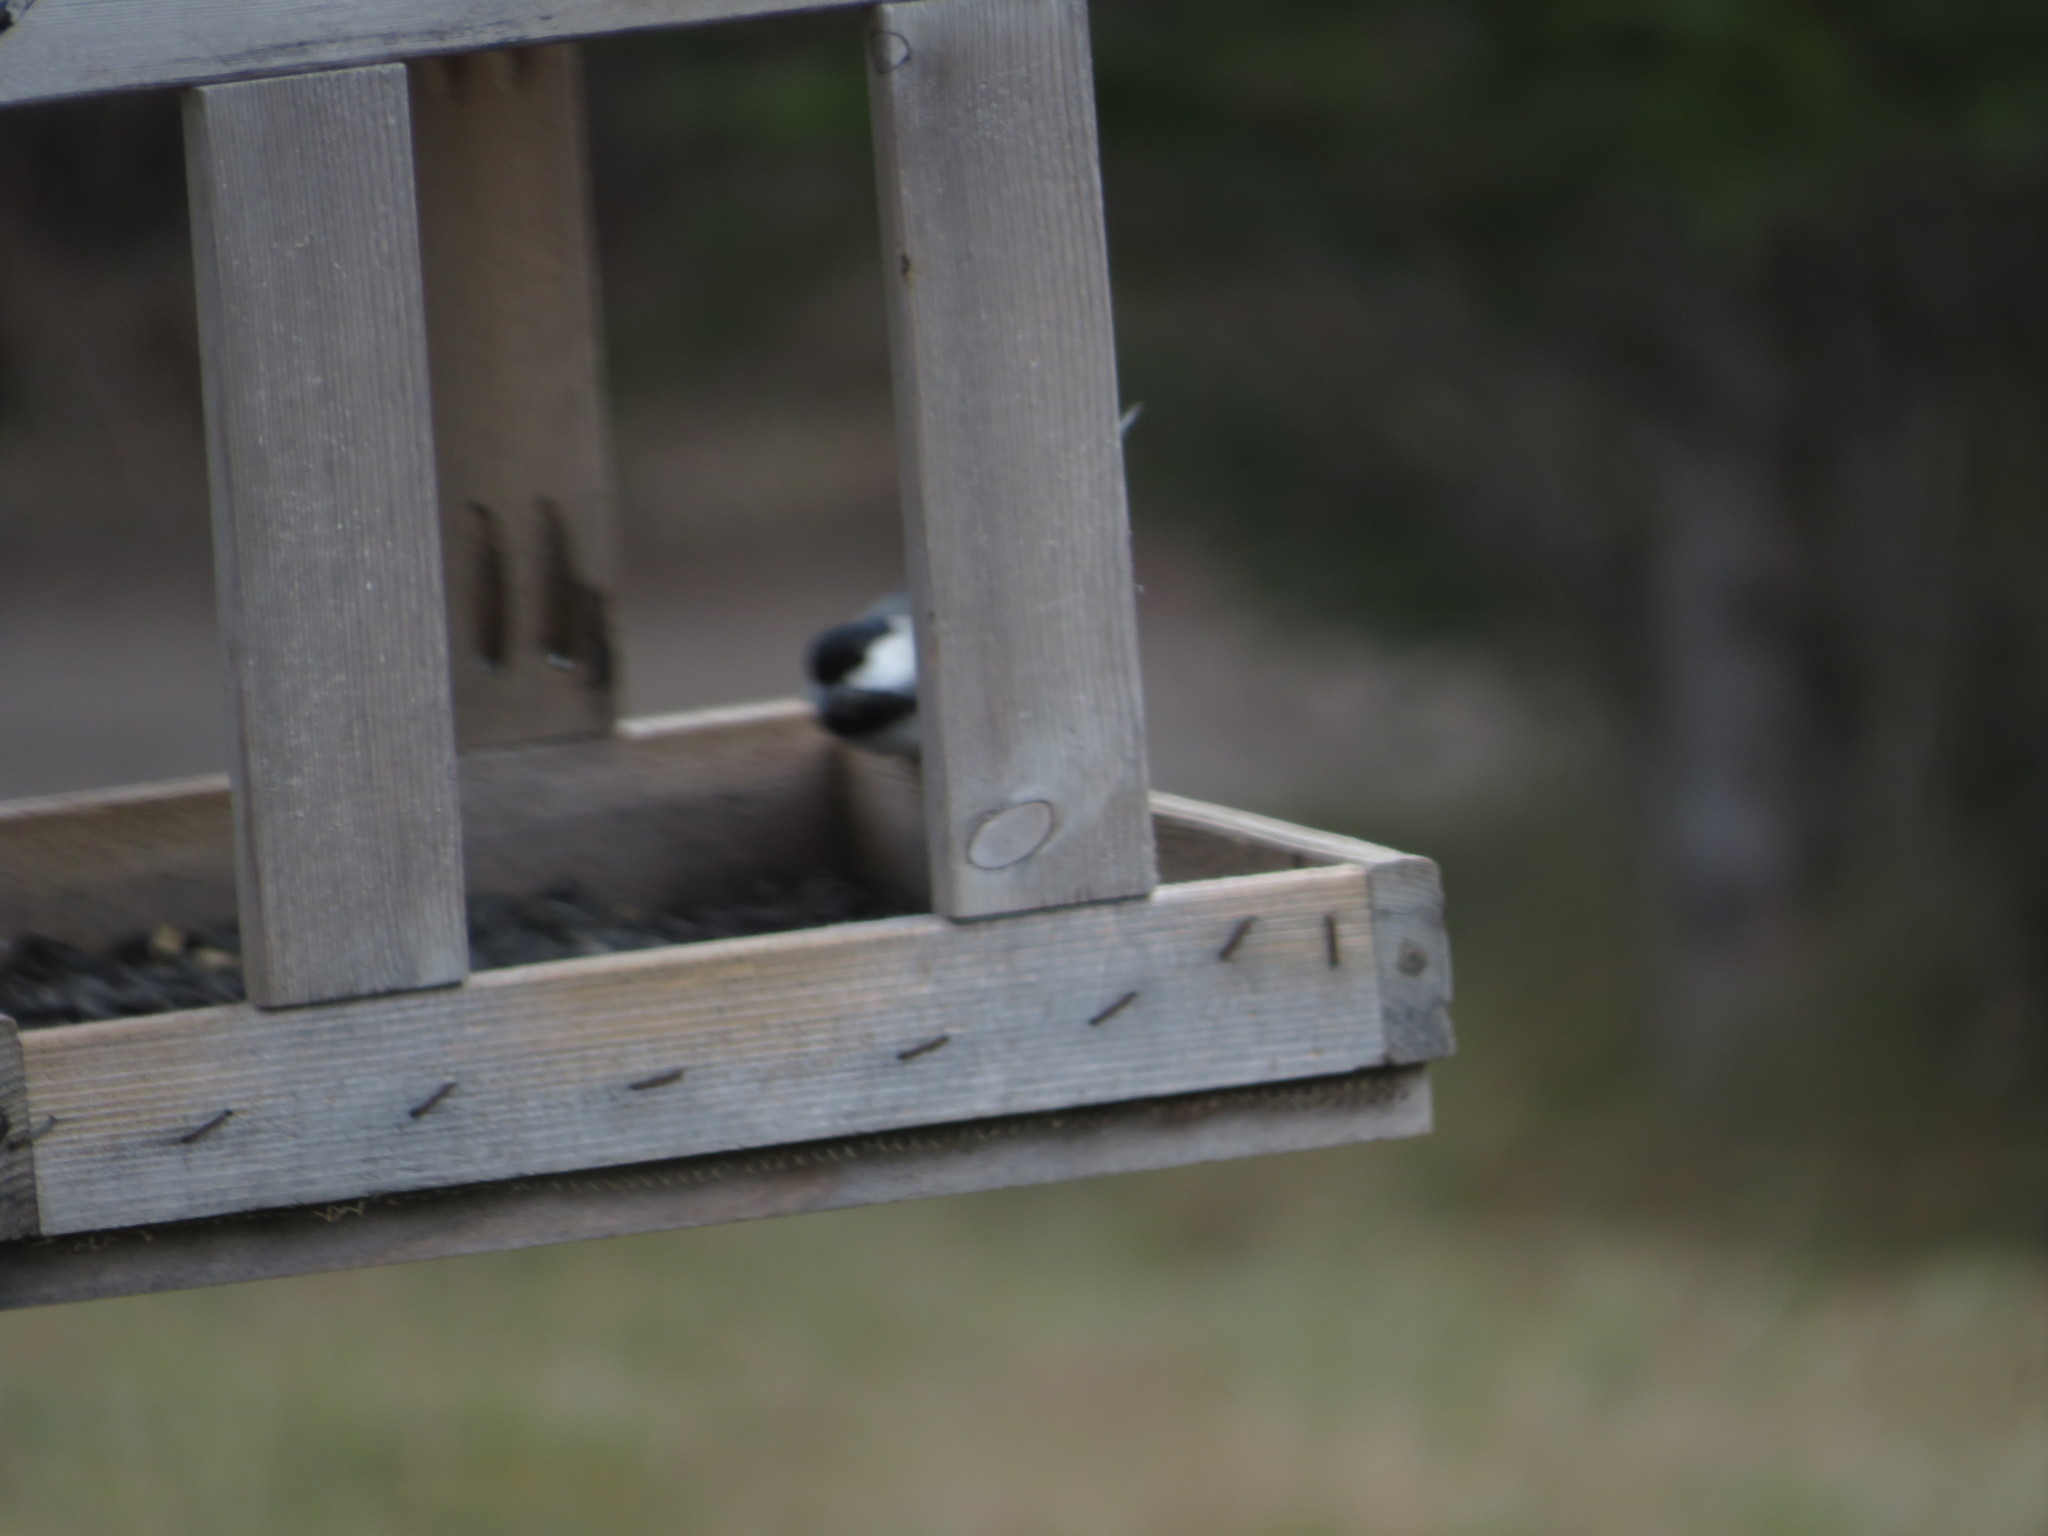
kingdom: Animalia
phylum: Chordata
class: Aves
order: Passeriformes
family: Paridae
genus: Poecile
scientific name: Poecile atricapillus
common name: Black-capped chickadee
